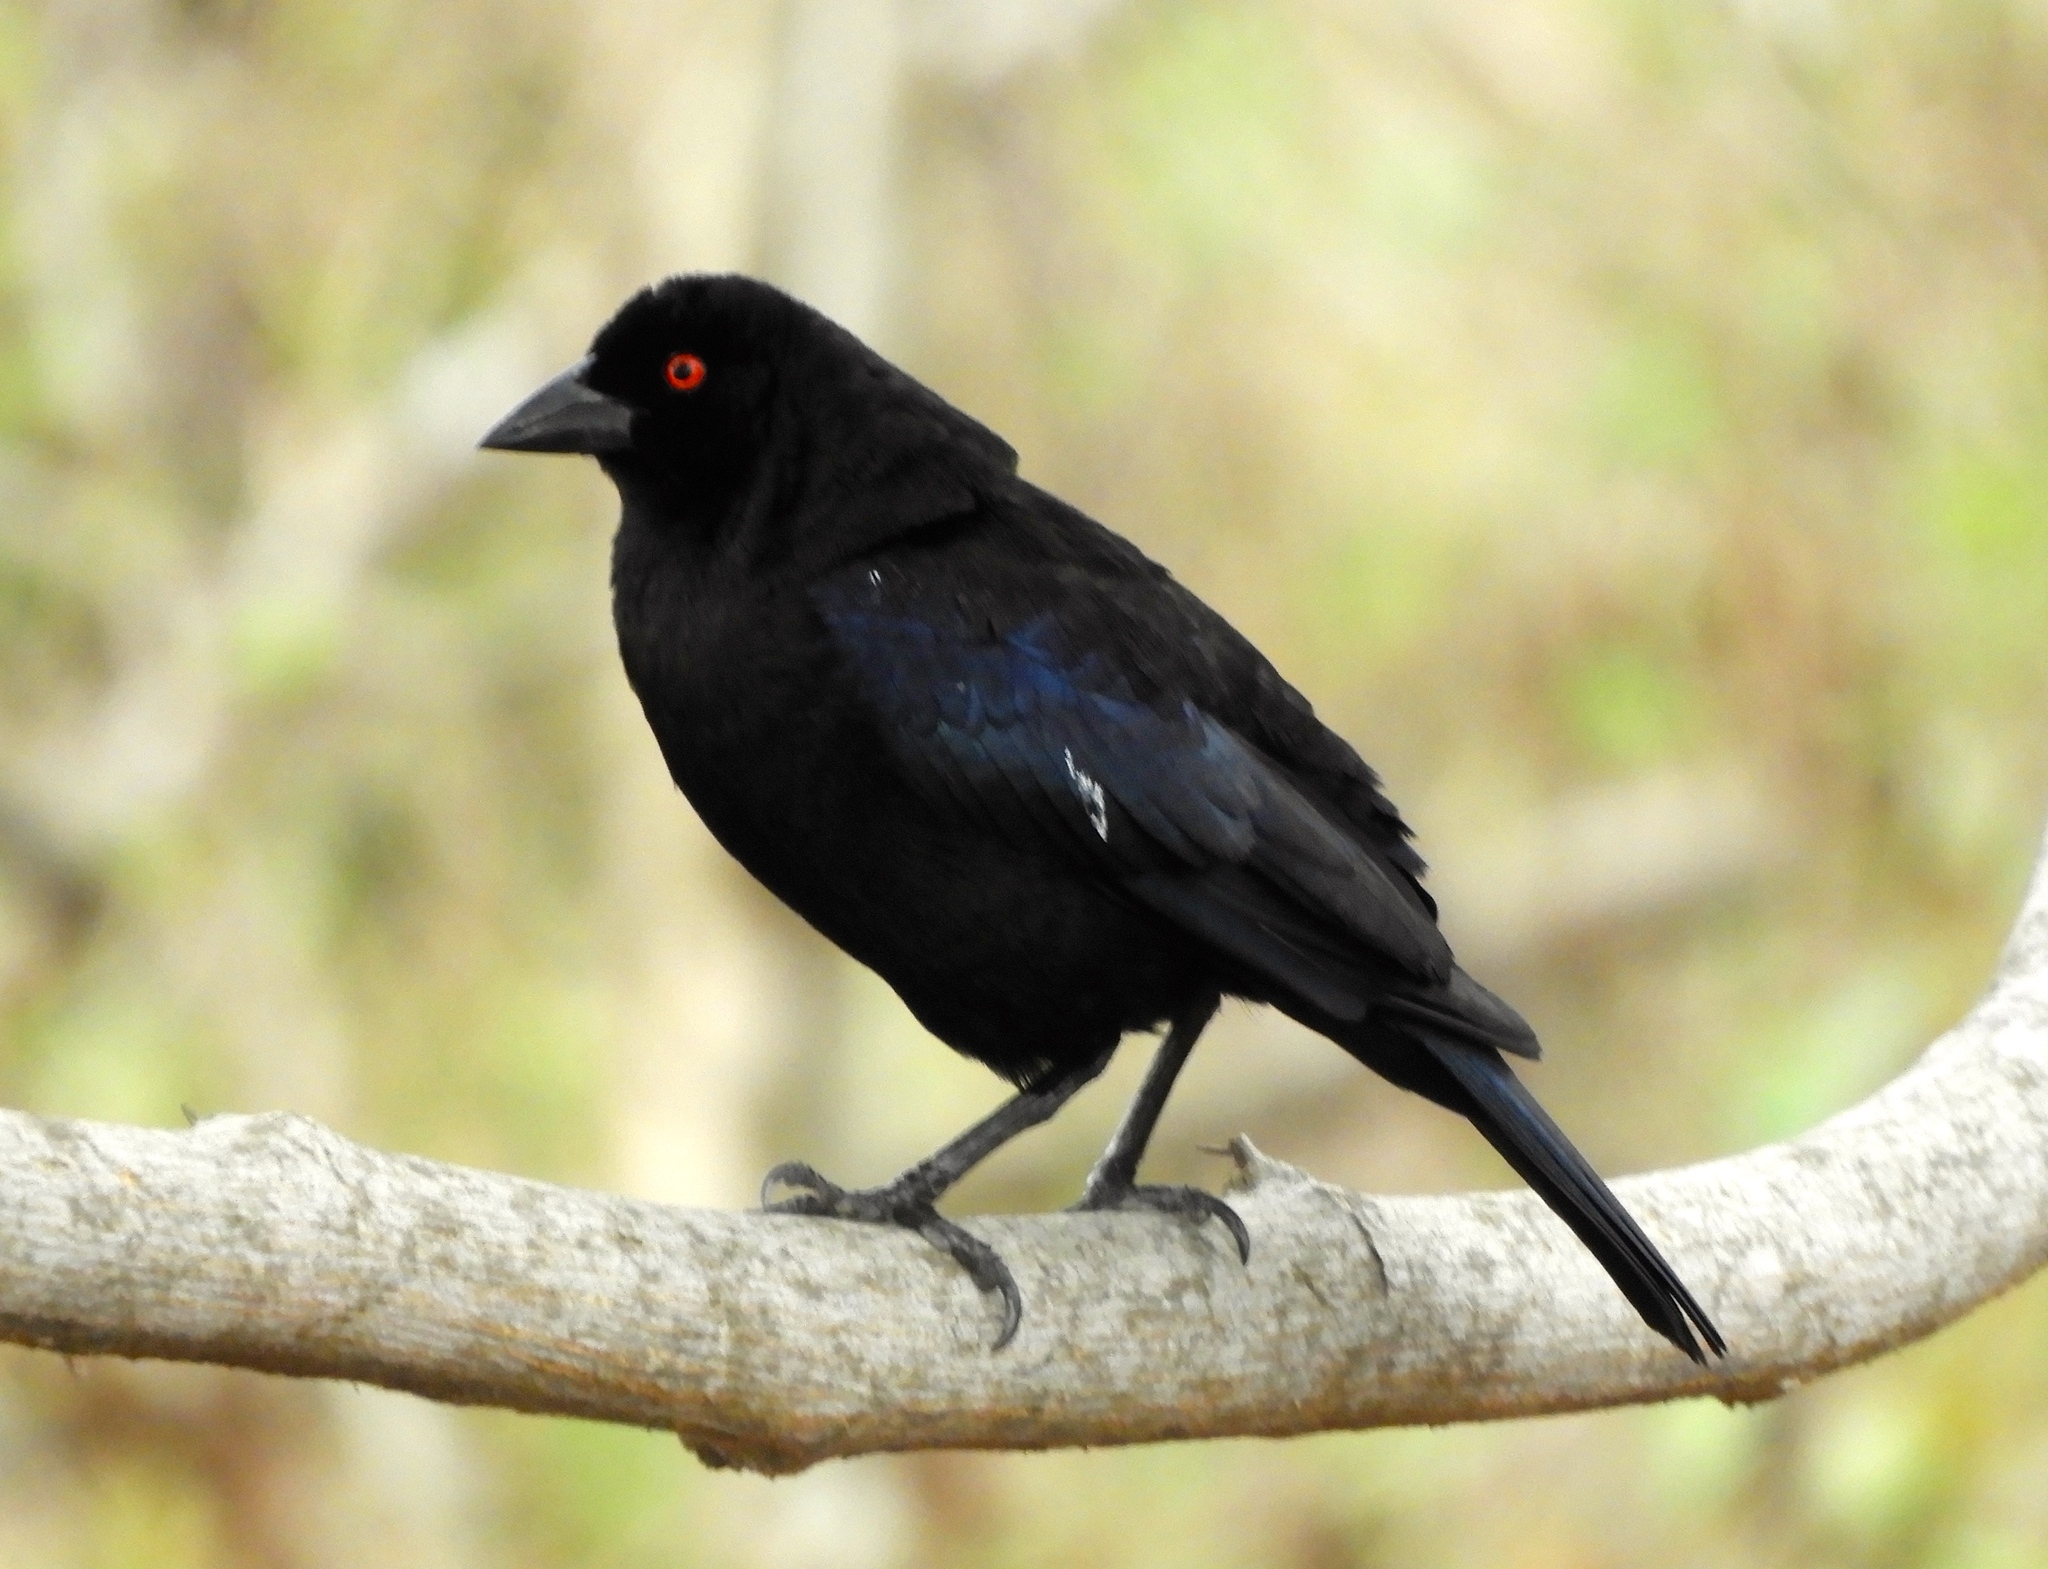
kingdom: Animalia
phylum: Chordata
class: Aves
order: Passeriformes
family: Icteridae
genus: Molothrus
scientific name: Molothrus aeneus
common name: Bronzed cowbird
